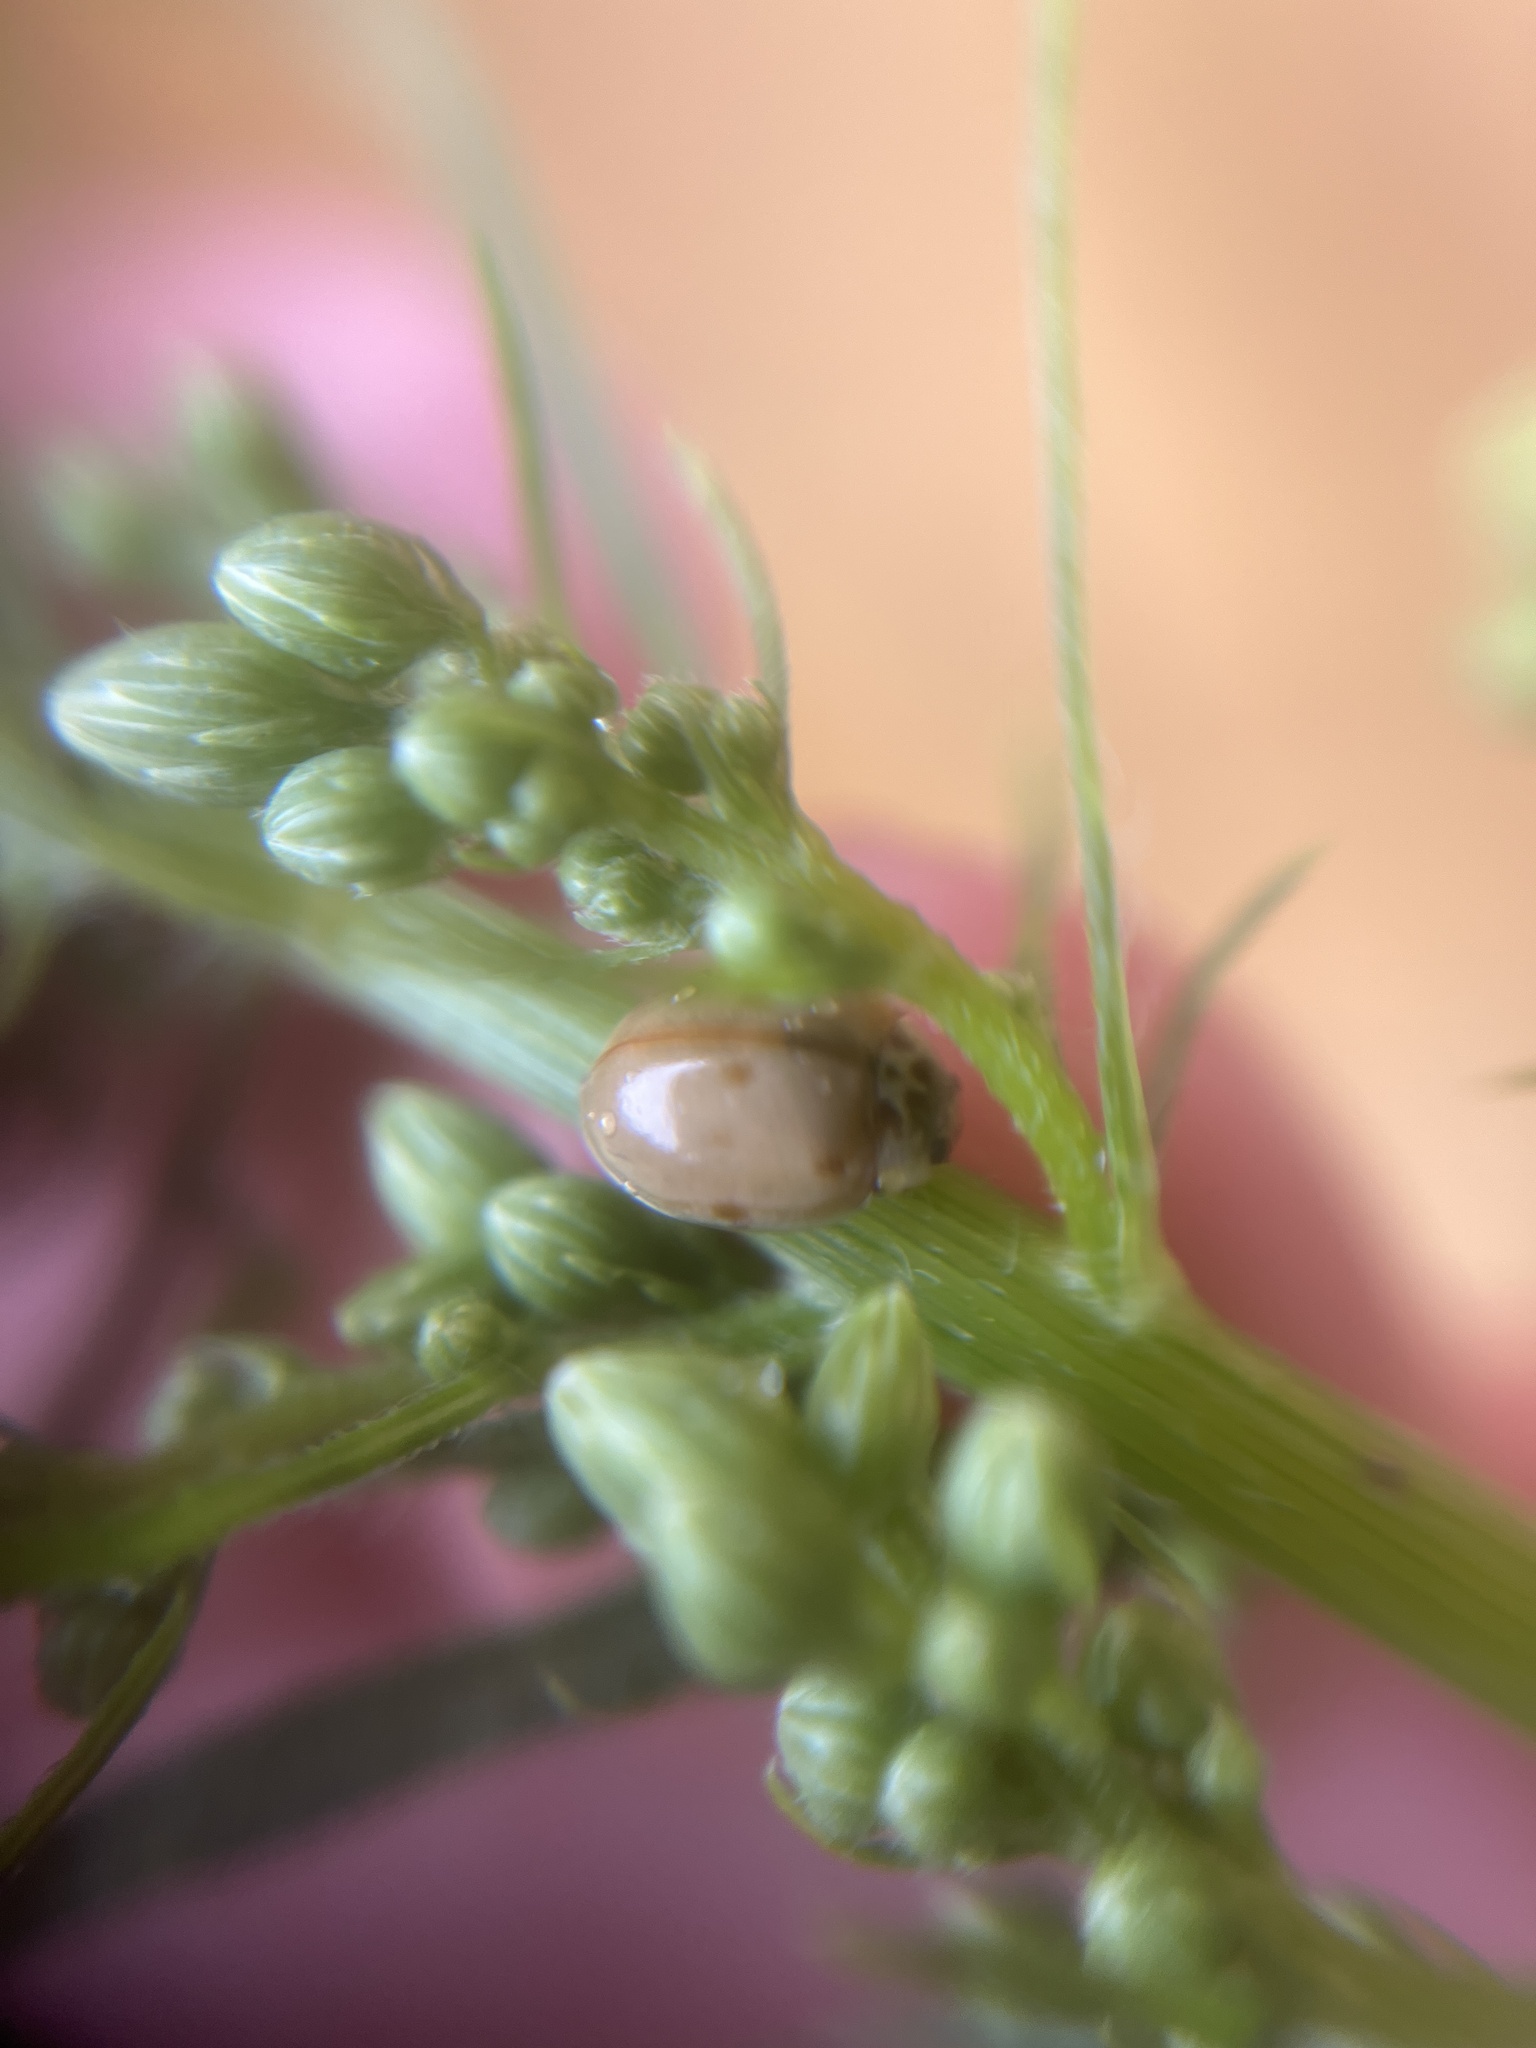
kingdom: Animalia
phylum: Arthropoda
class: Insecta
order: Coleoptera
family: Coccinellidae
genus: Harmonia
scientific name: Harmonia axyridis
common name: Harlequin ladybird
